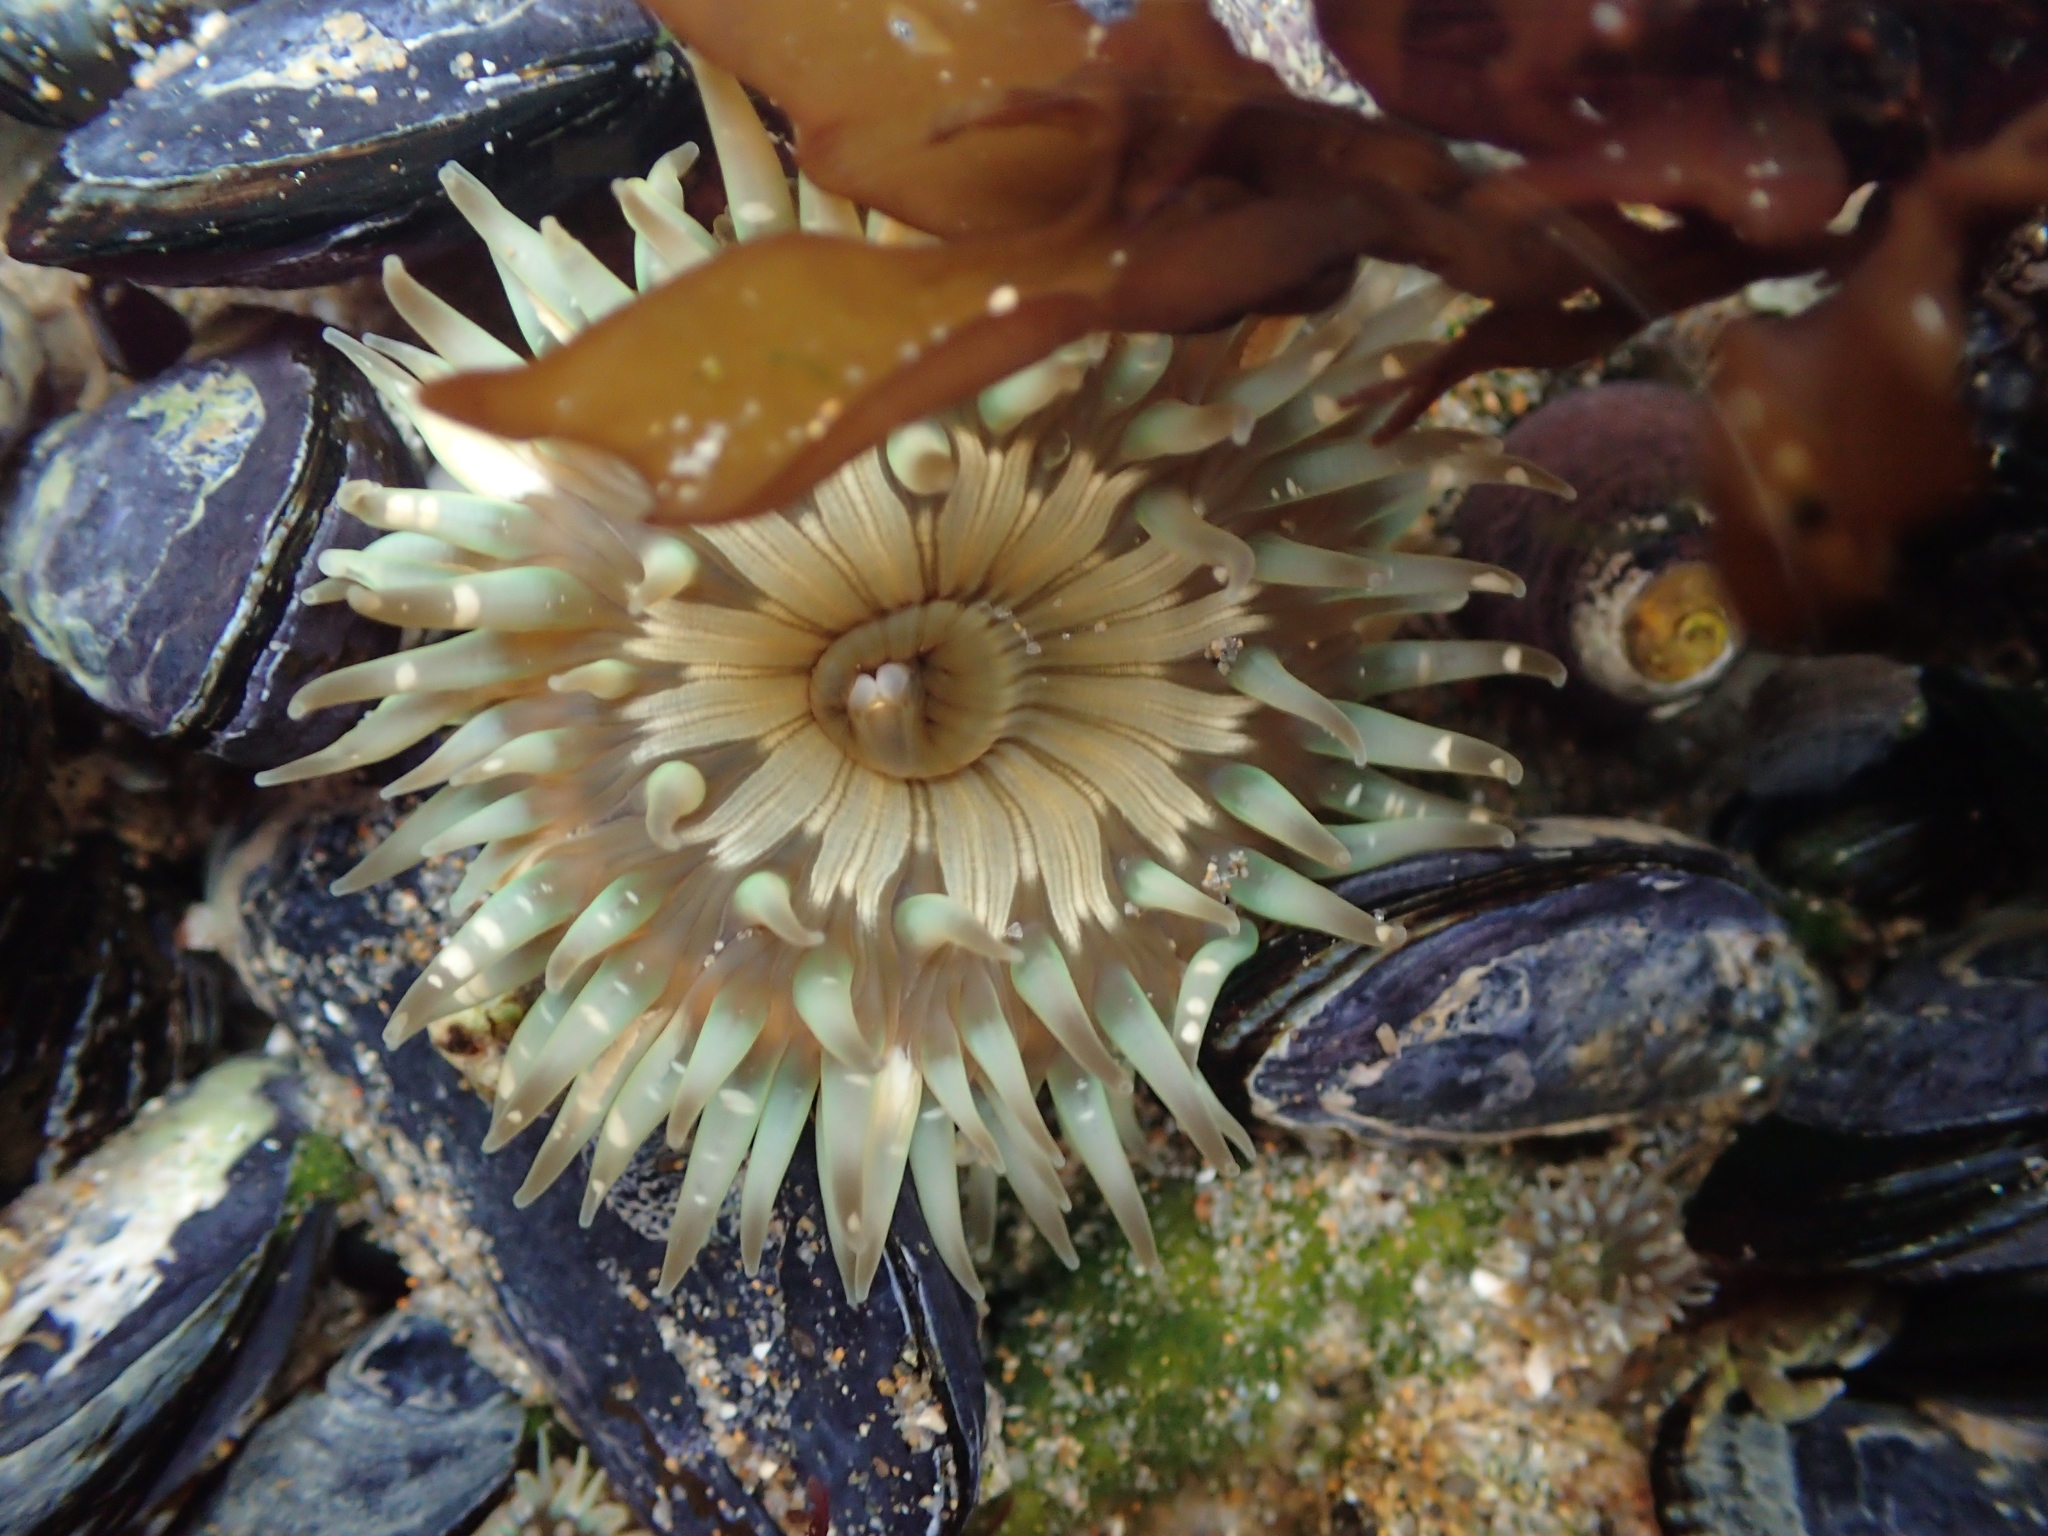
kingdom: Animalia
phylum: Cnidaria
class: Anthozoa
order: Actiniaria
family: Actiniidae
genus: Anthopleura
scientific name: Anthopleura sola
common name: Sun anemone
